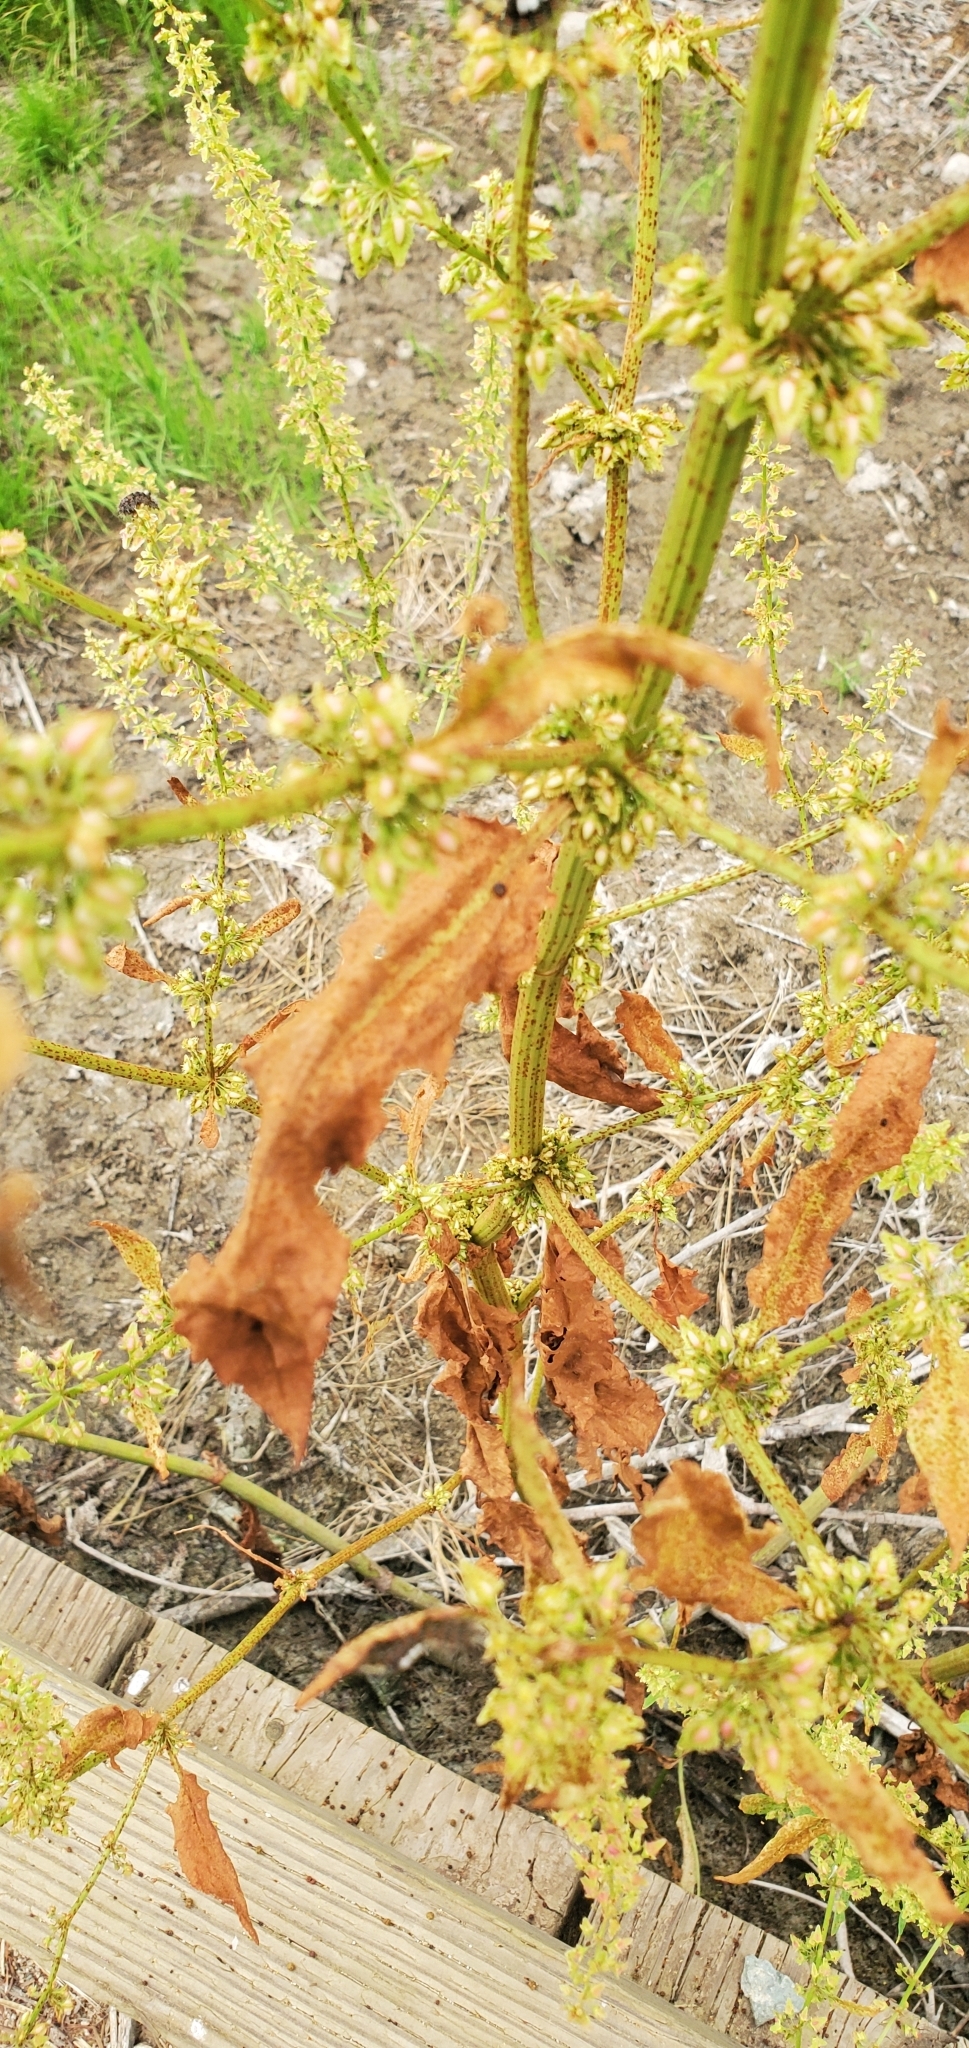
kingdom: Plantae
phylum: Tracheophyta
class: Magnoliopsida
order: Caryophyllales
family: Polygonaceae
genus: Rumex
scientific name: Rumex pulcher
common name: Fiddle dock
